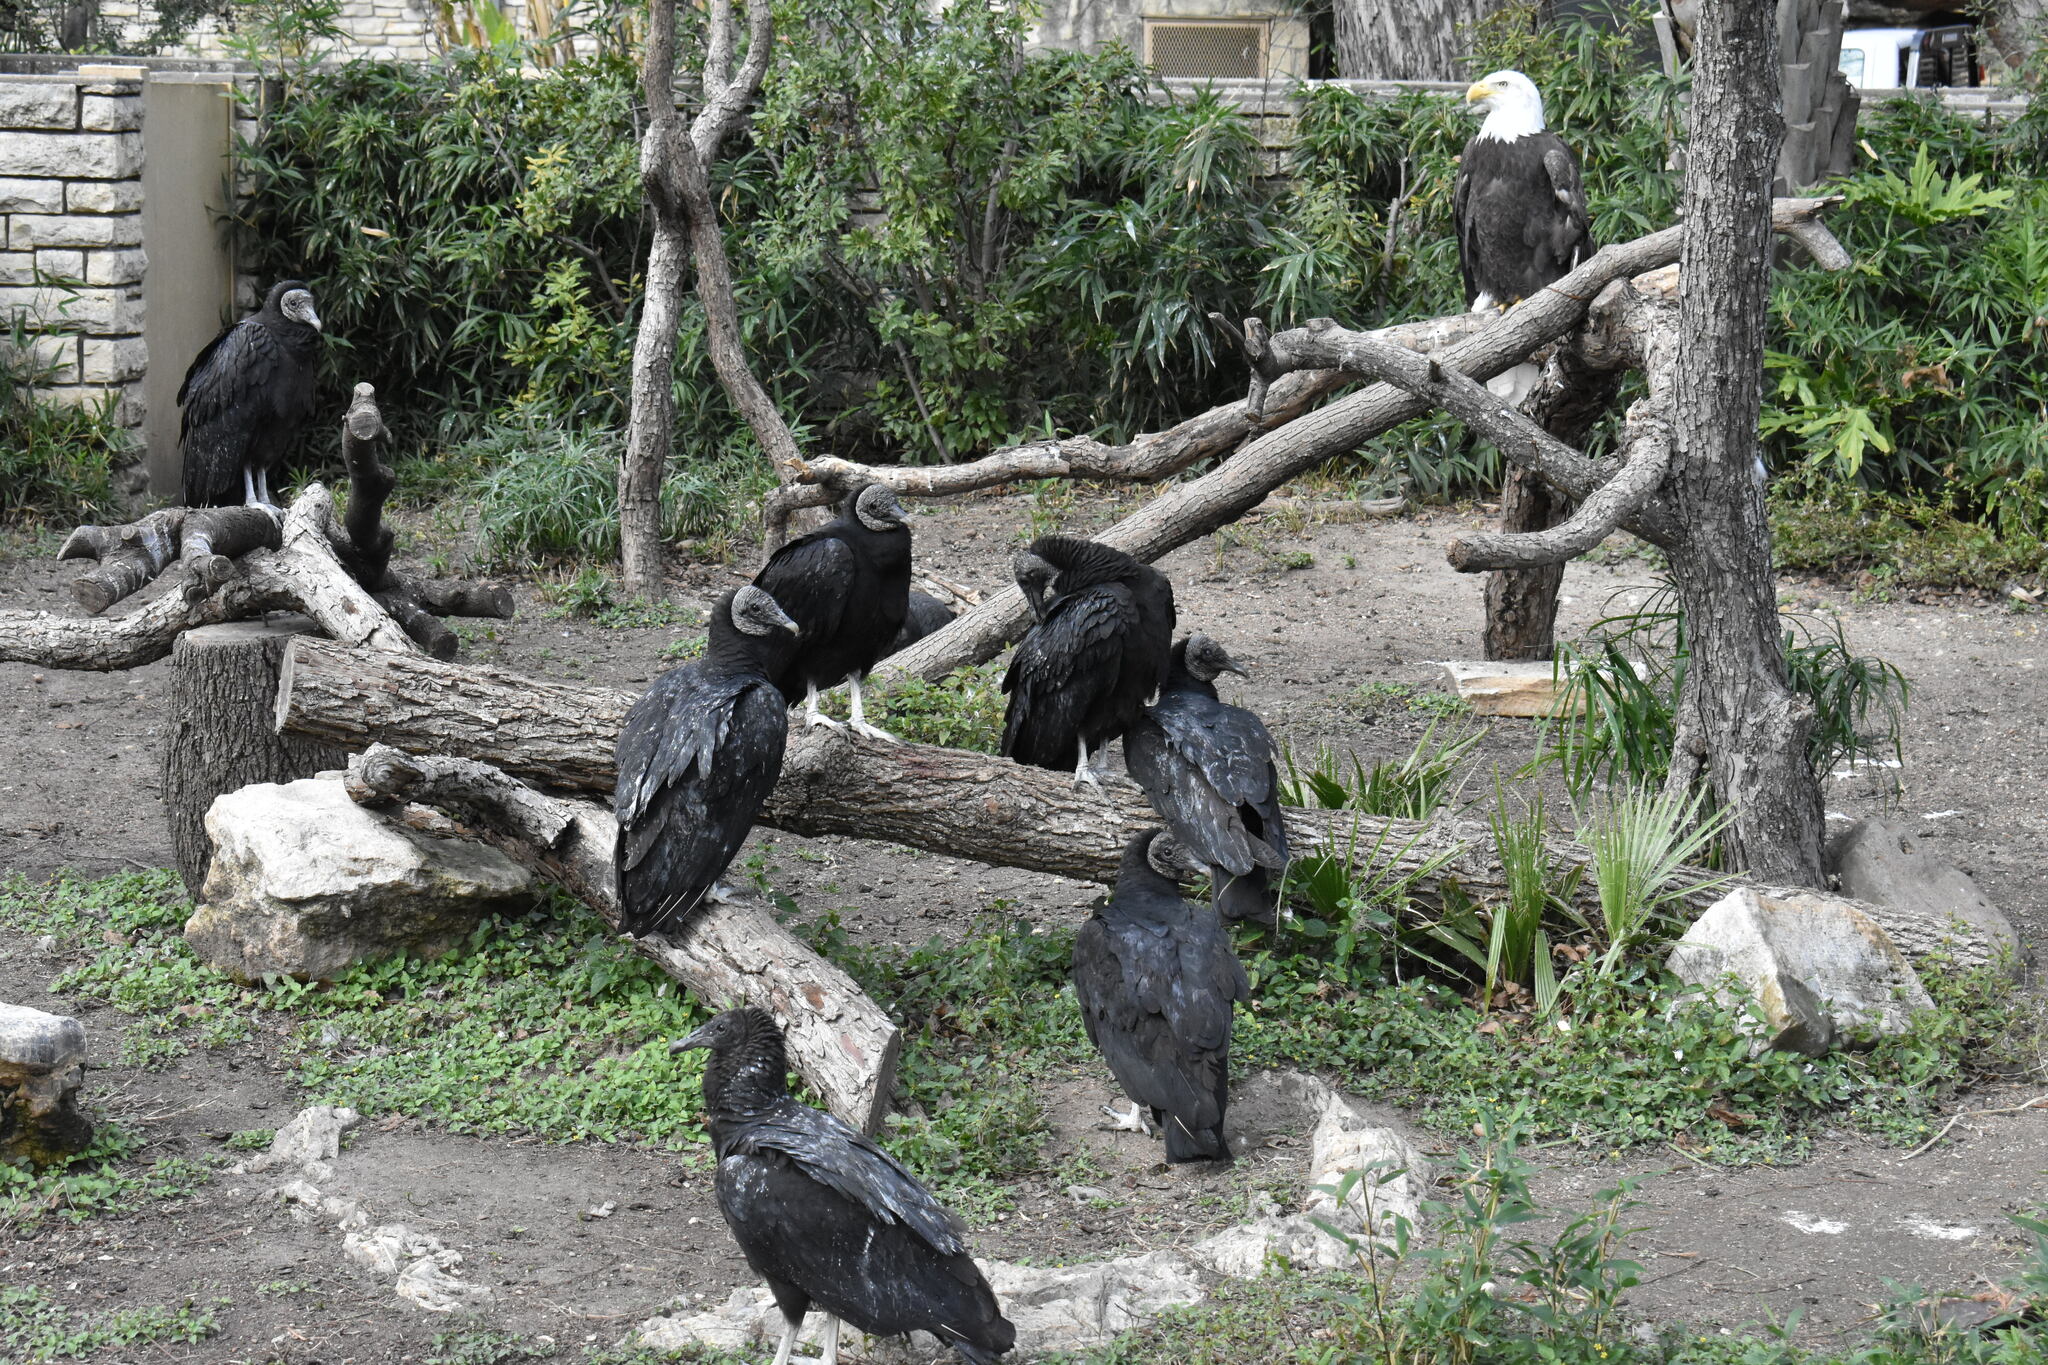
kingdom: Animalia
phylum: Chordata
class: Aves
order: Accipitriformes
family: Cathartidae
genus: Coragyps
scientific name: Coragyps atratus
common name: Black vulture
